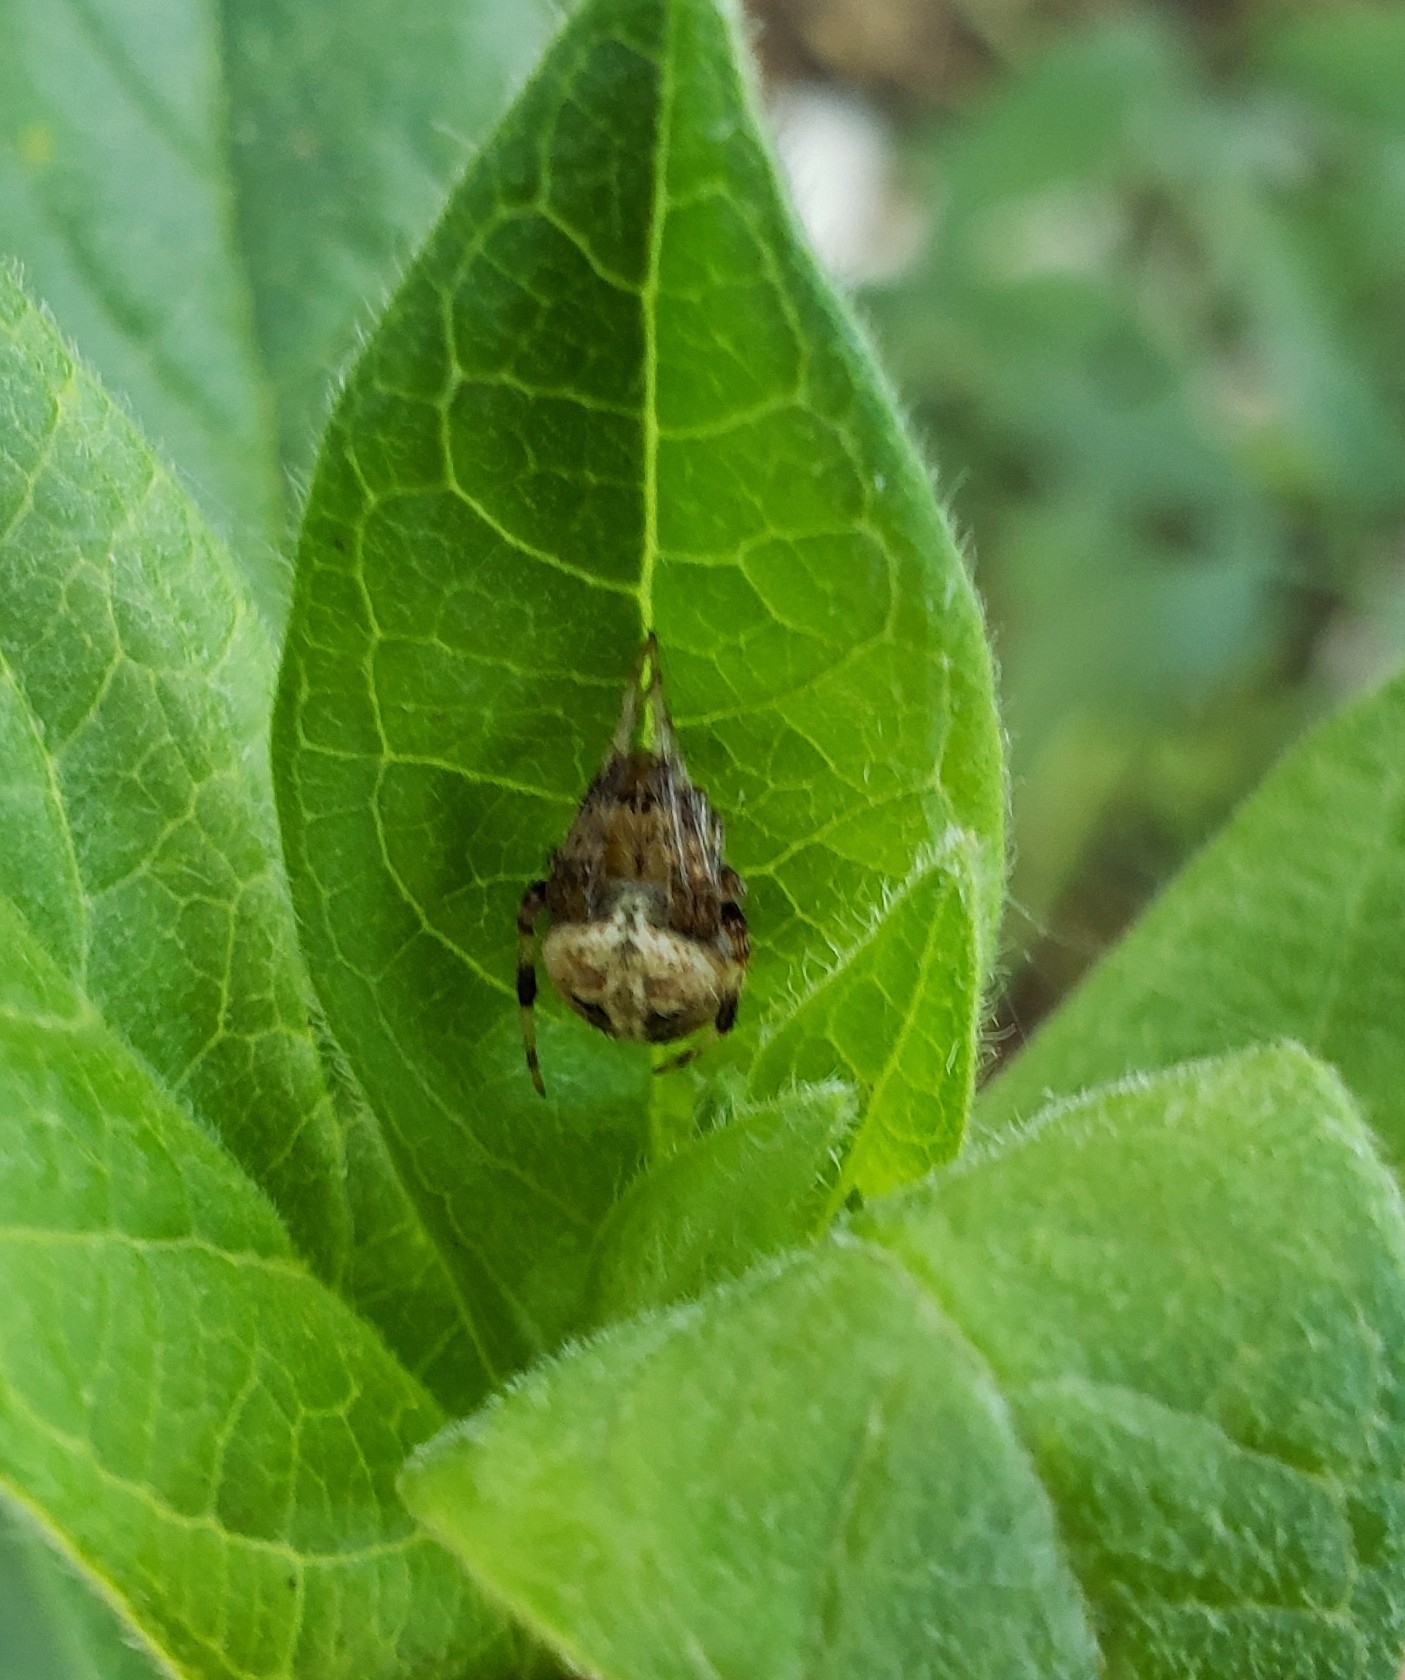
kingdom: Animalia
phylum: Arthropoda
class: Arachnida
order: Araneae
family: Araneidae
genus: Neoscona
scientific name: Neoscona arabesca
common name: Orb weavers
